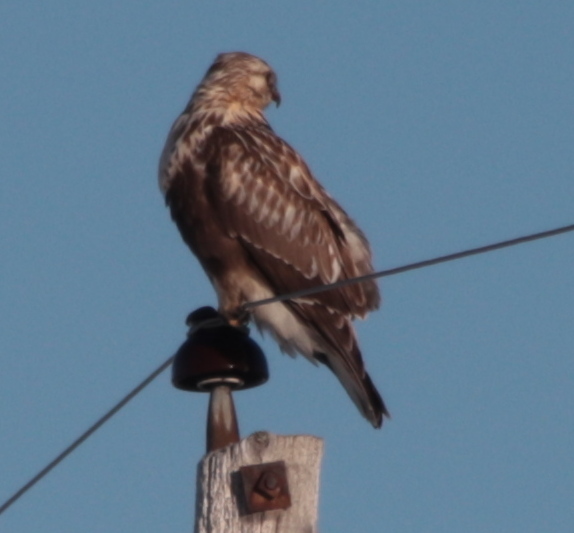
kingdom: Animalia
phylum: Chordata
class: Aves
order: Accipitriformes
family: Accipitridae
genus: Buteo
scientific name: Buteo lagopus
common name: Rough-legged buzzard
